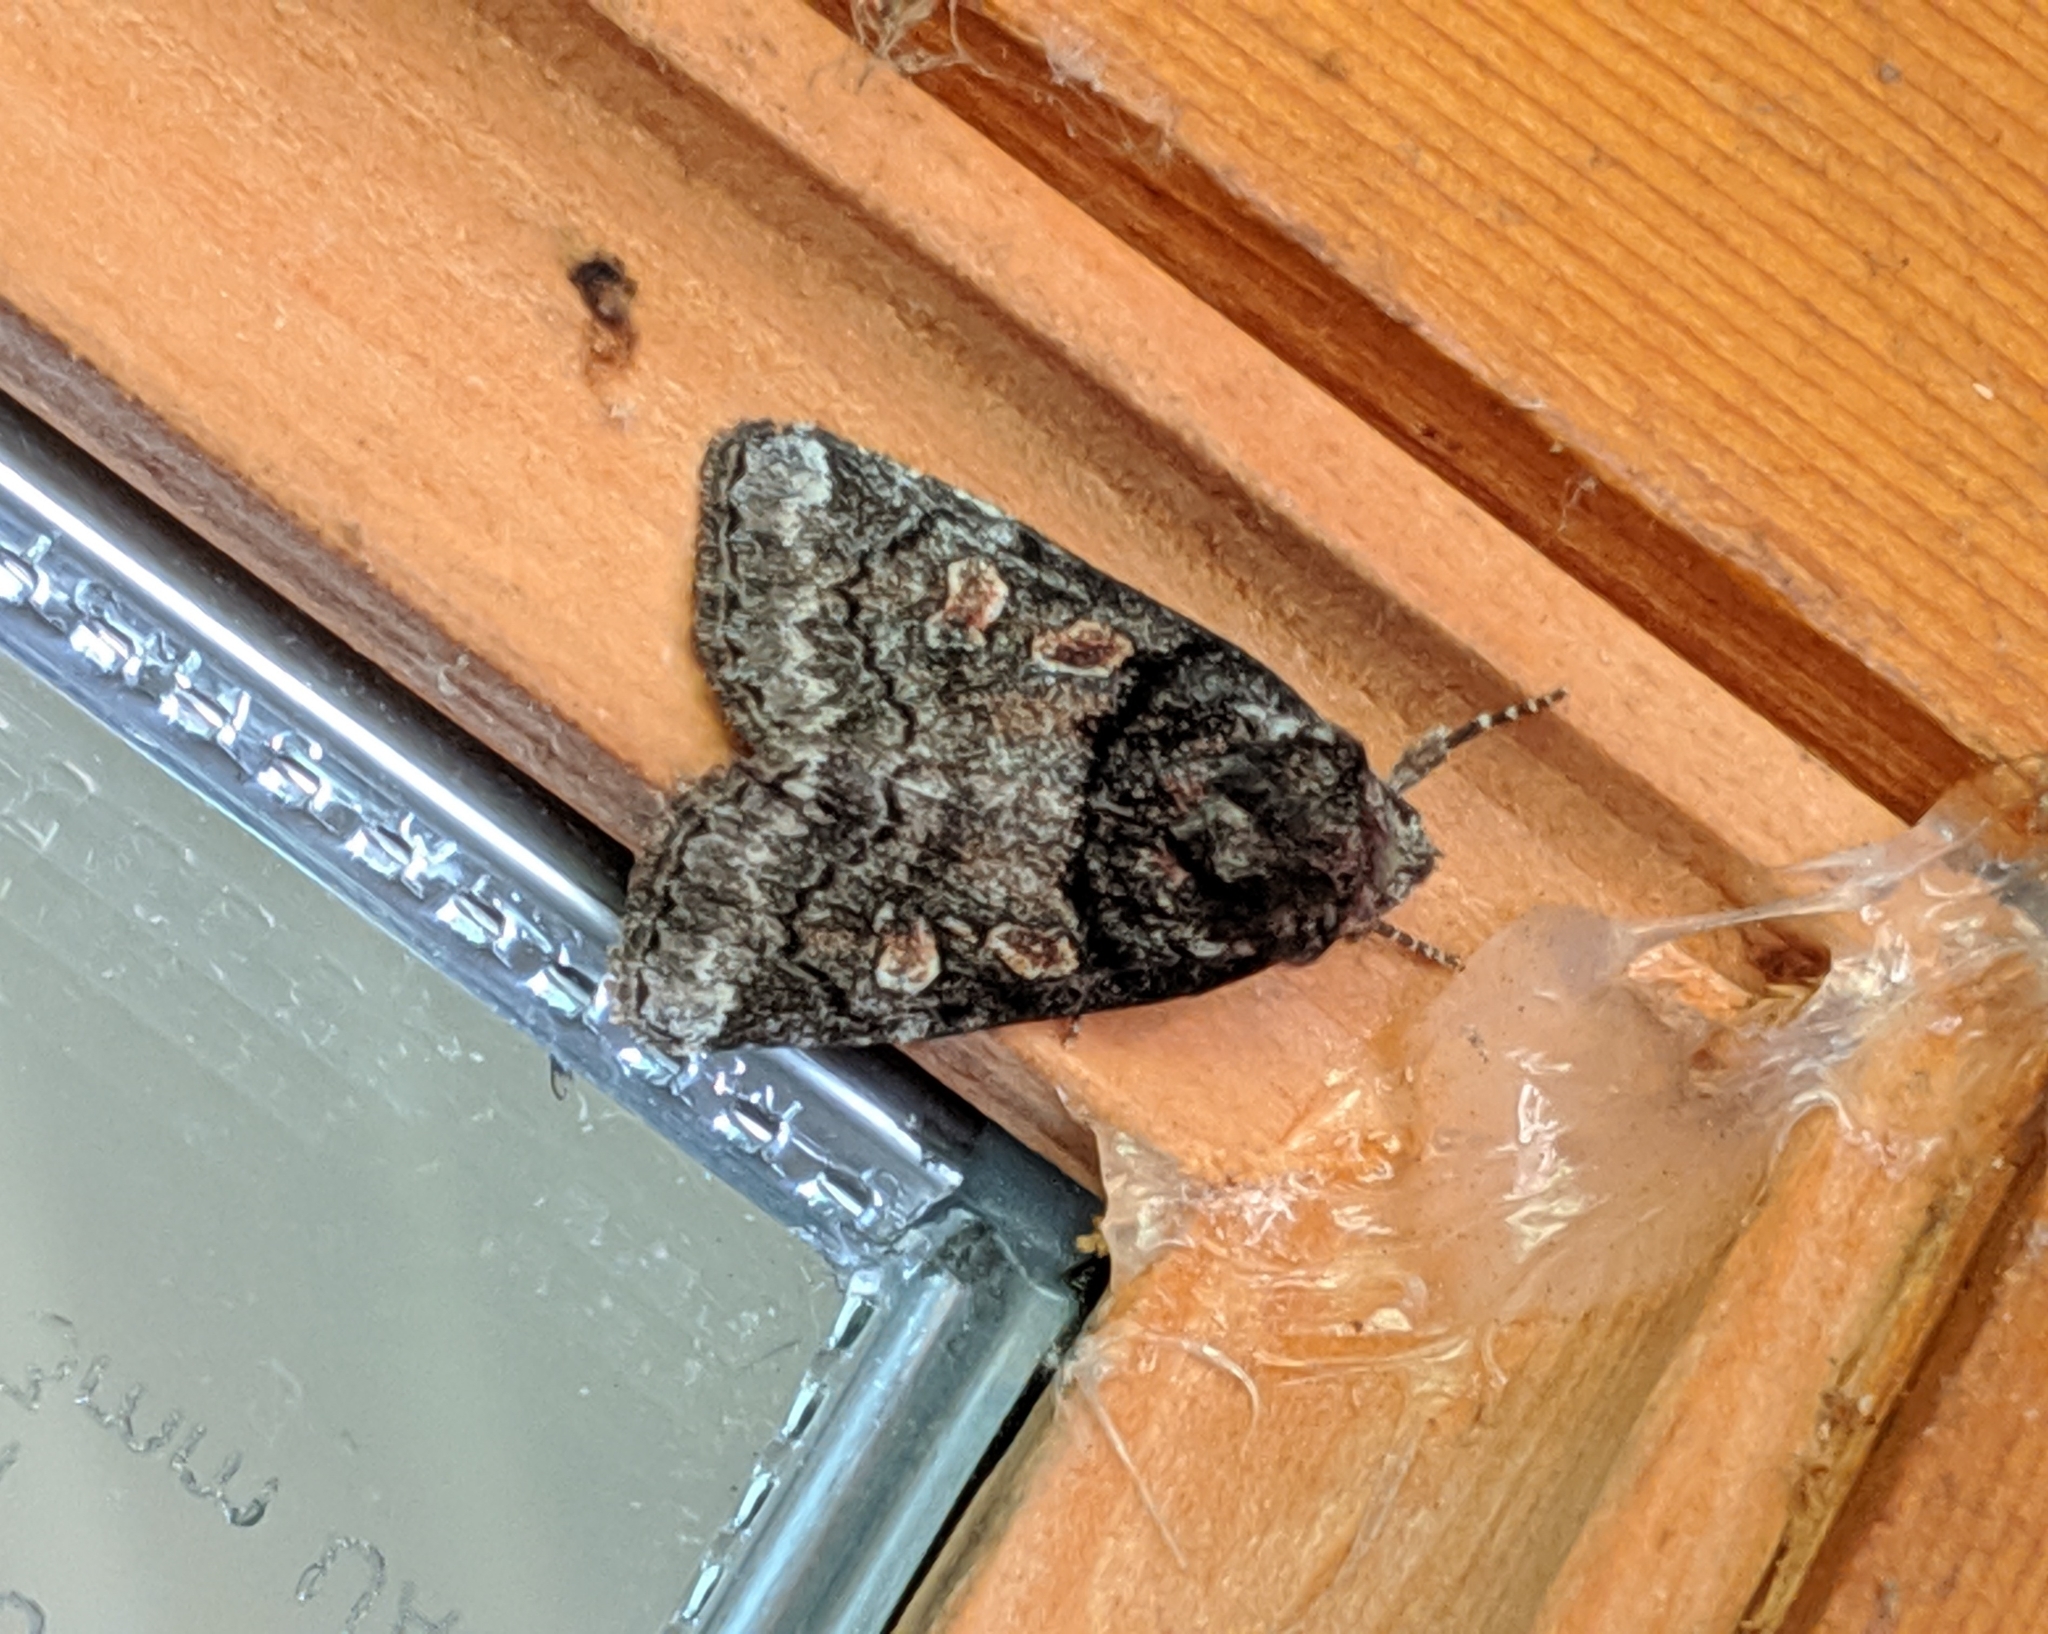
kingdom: Animalia
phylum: Arthropoda
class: Insecta
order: Lepidoptera
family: Noctuidae
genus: Cosmia
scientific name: Cosmia praeacuta
